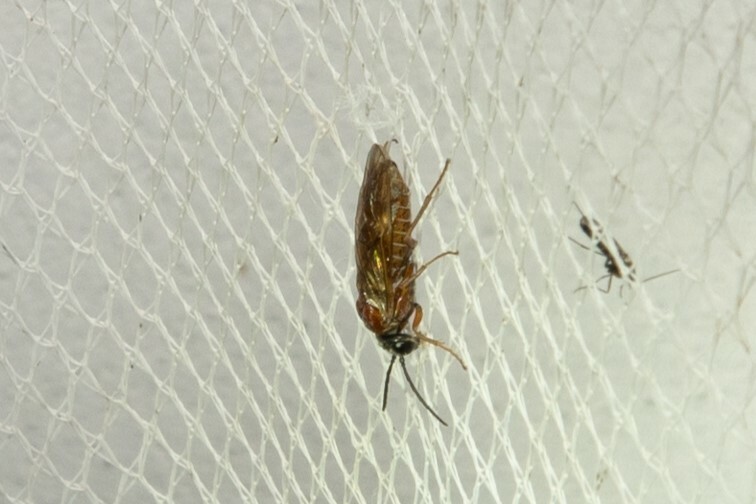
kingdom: Animalia
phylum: Arthropoda
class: Insecta
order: Hymenoptera
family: Tenthredinidae
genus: Periclista
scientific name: Periclista albida
